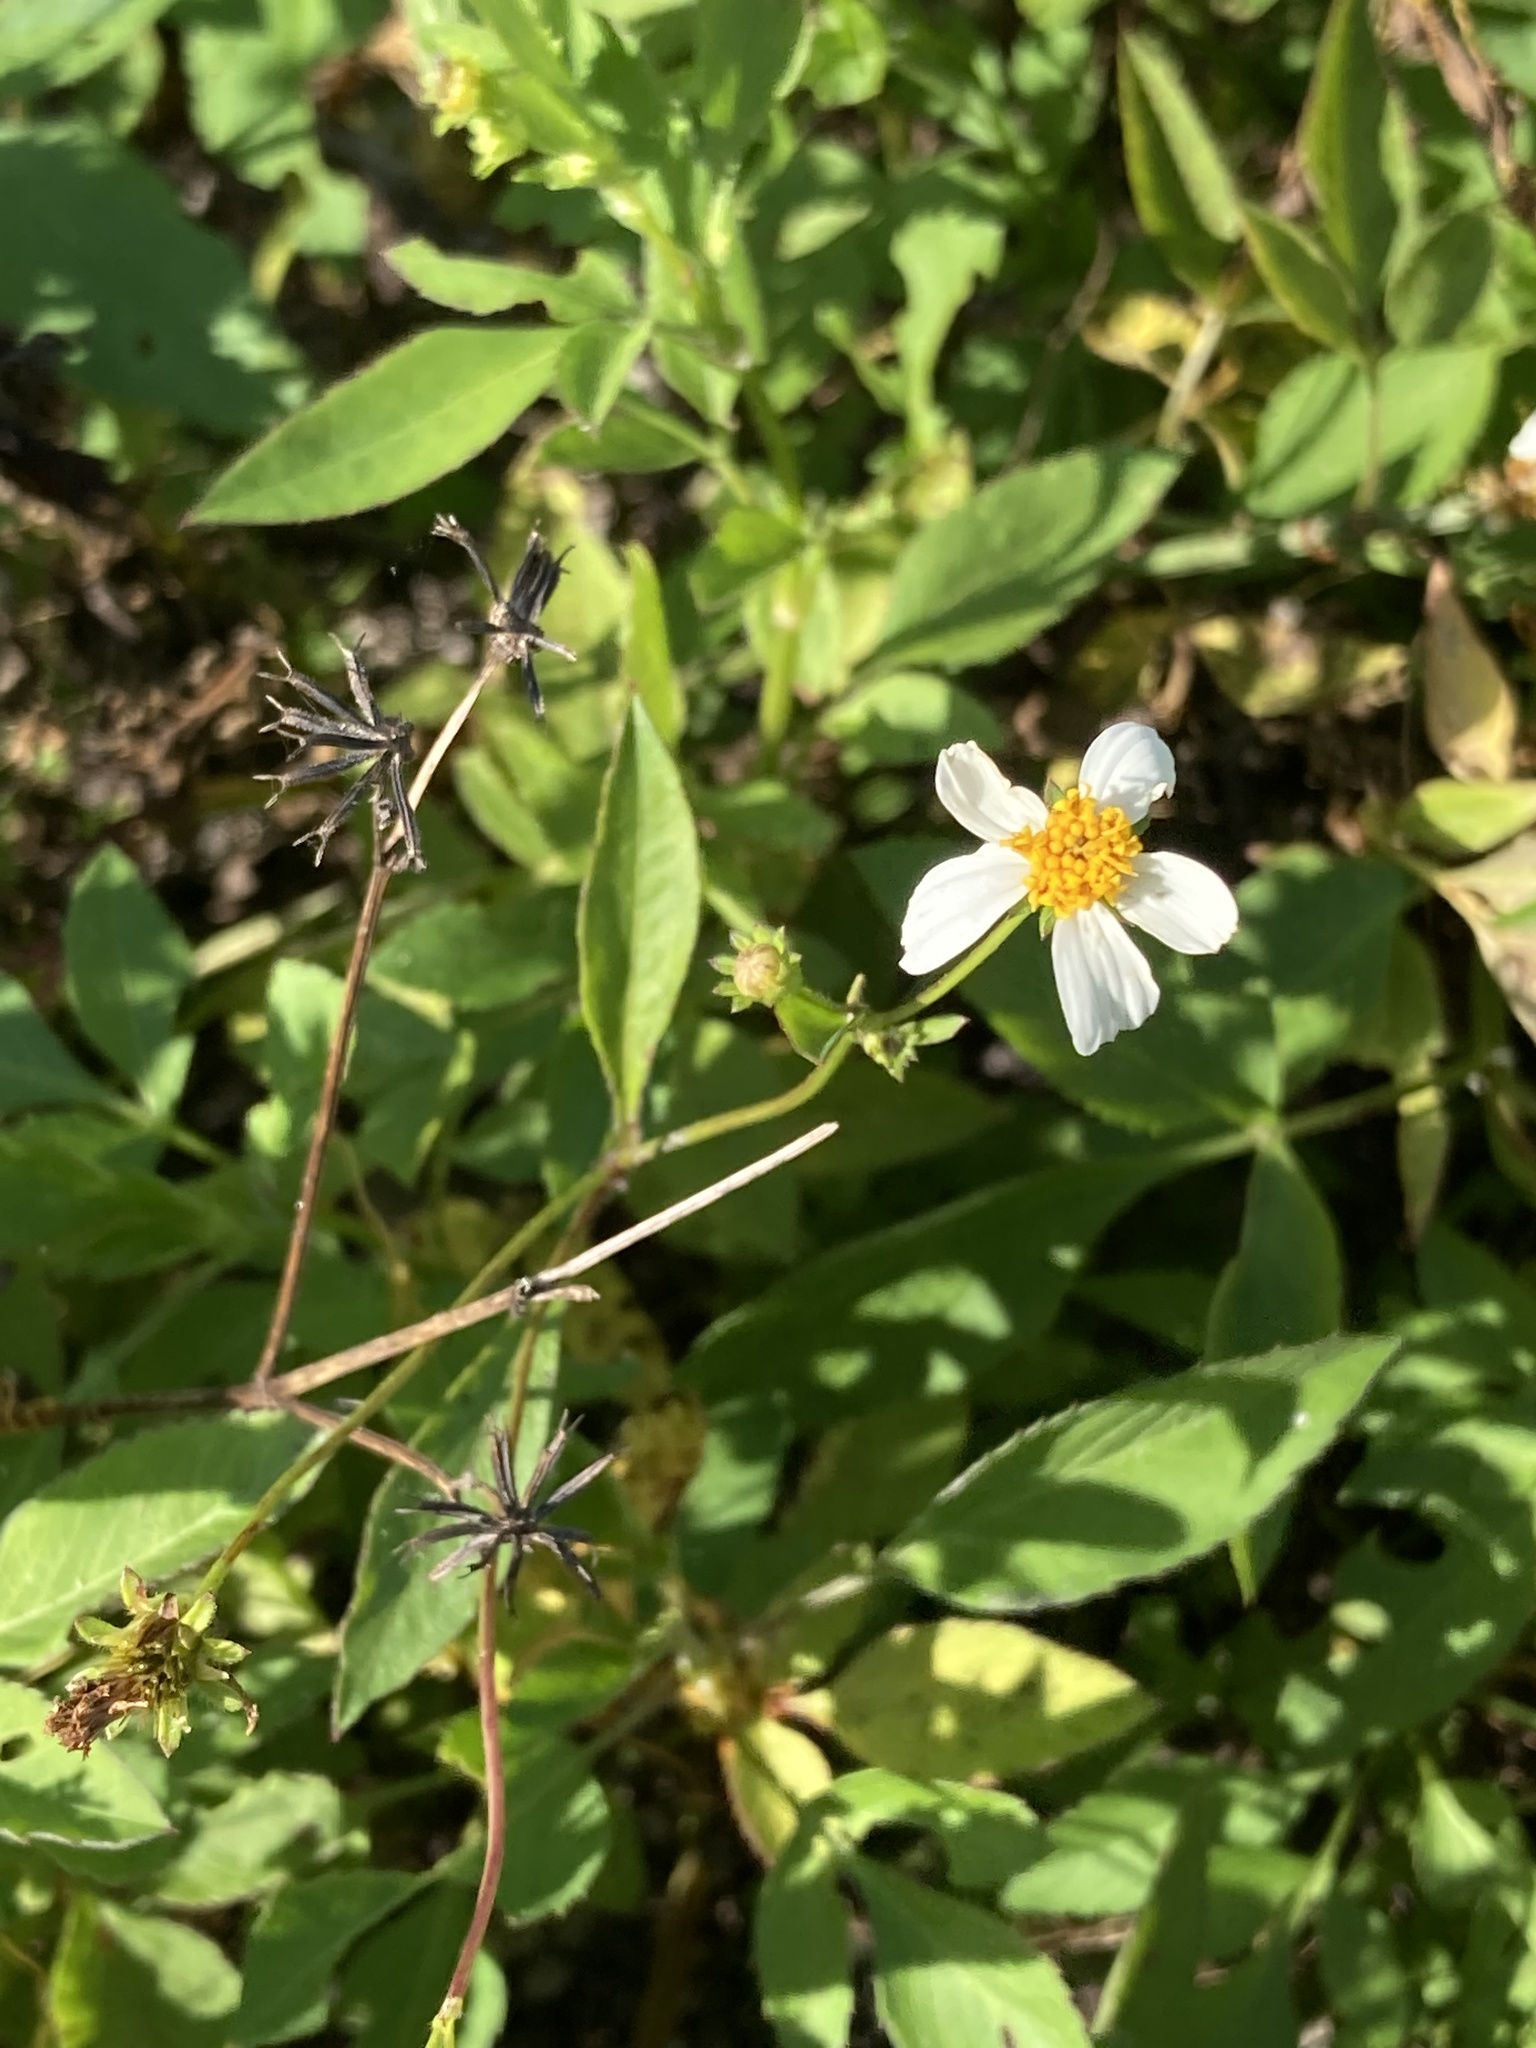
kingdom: Plantae
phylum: Tracheophyta
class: Magnoliopsida
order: Asterales
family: Asteraceae
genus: Bidens
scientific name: Bidens alba
